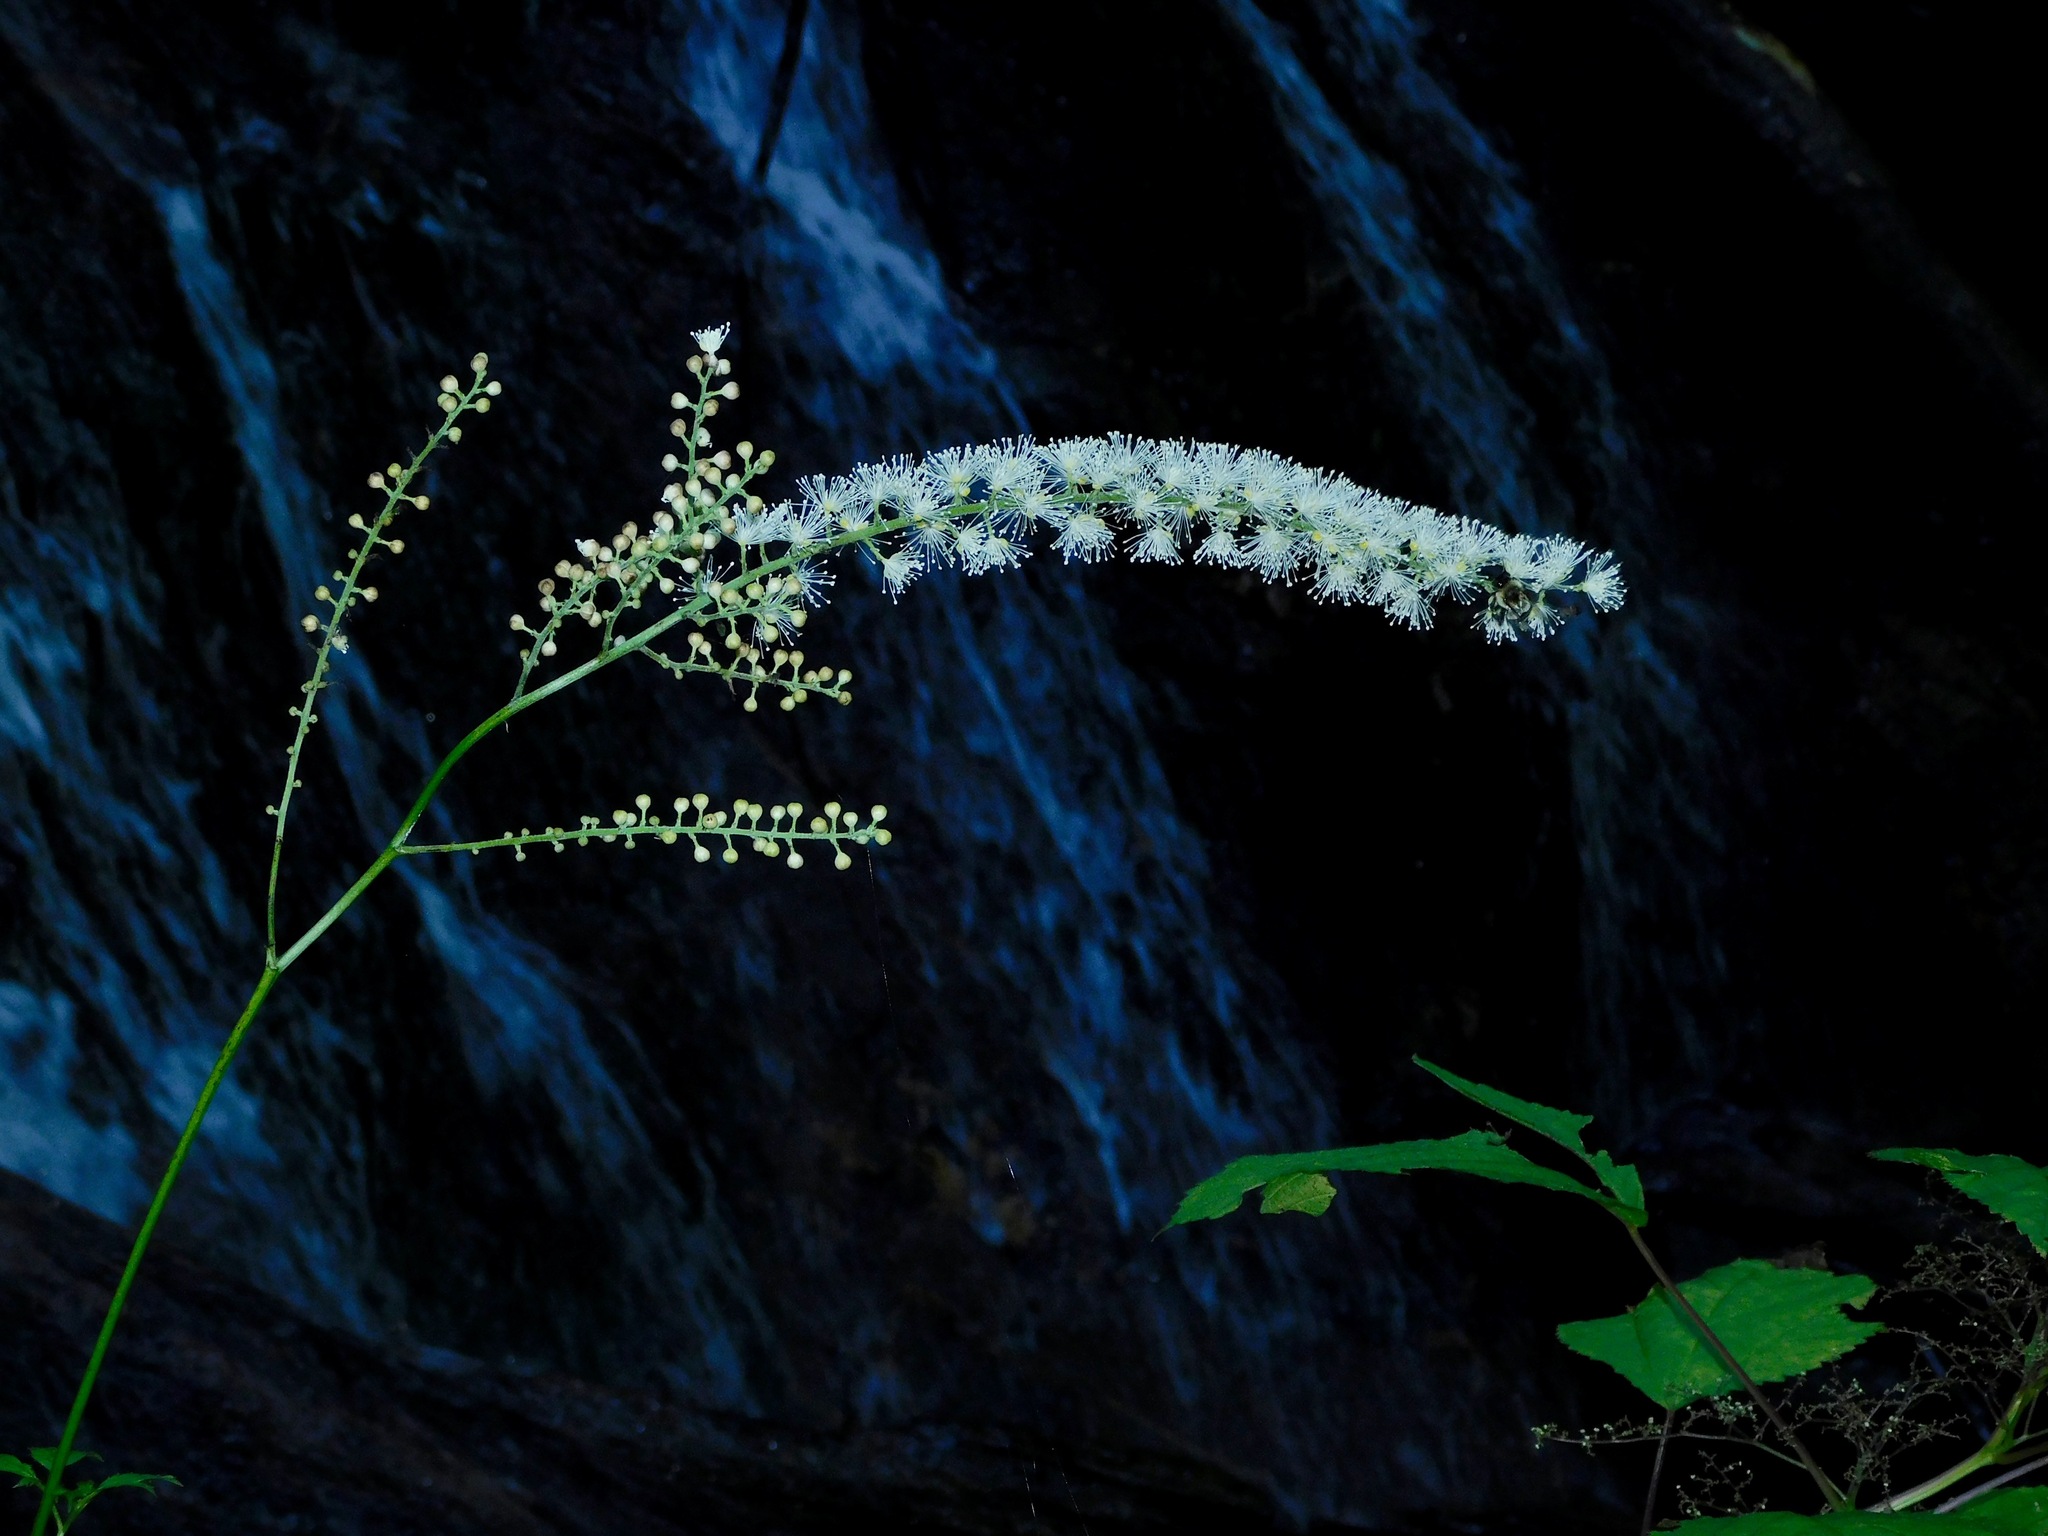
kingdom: Plantae
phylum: Tracheophyta
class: Magnoliopsida
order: Ranunculales
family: Ranunculaceae
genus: Actaea
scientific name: Actaea podocarpa
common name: American bugbane
